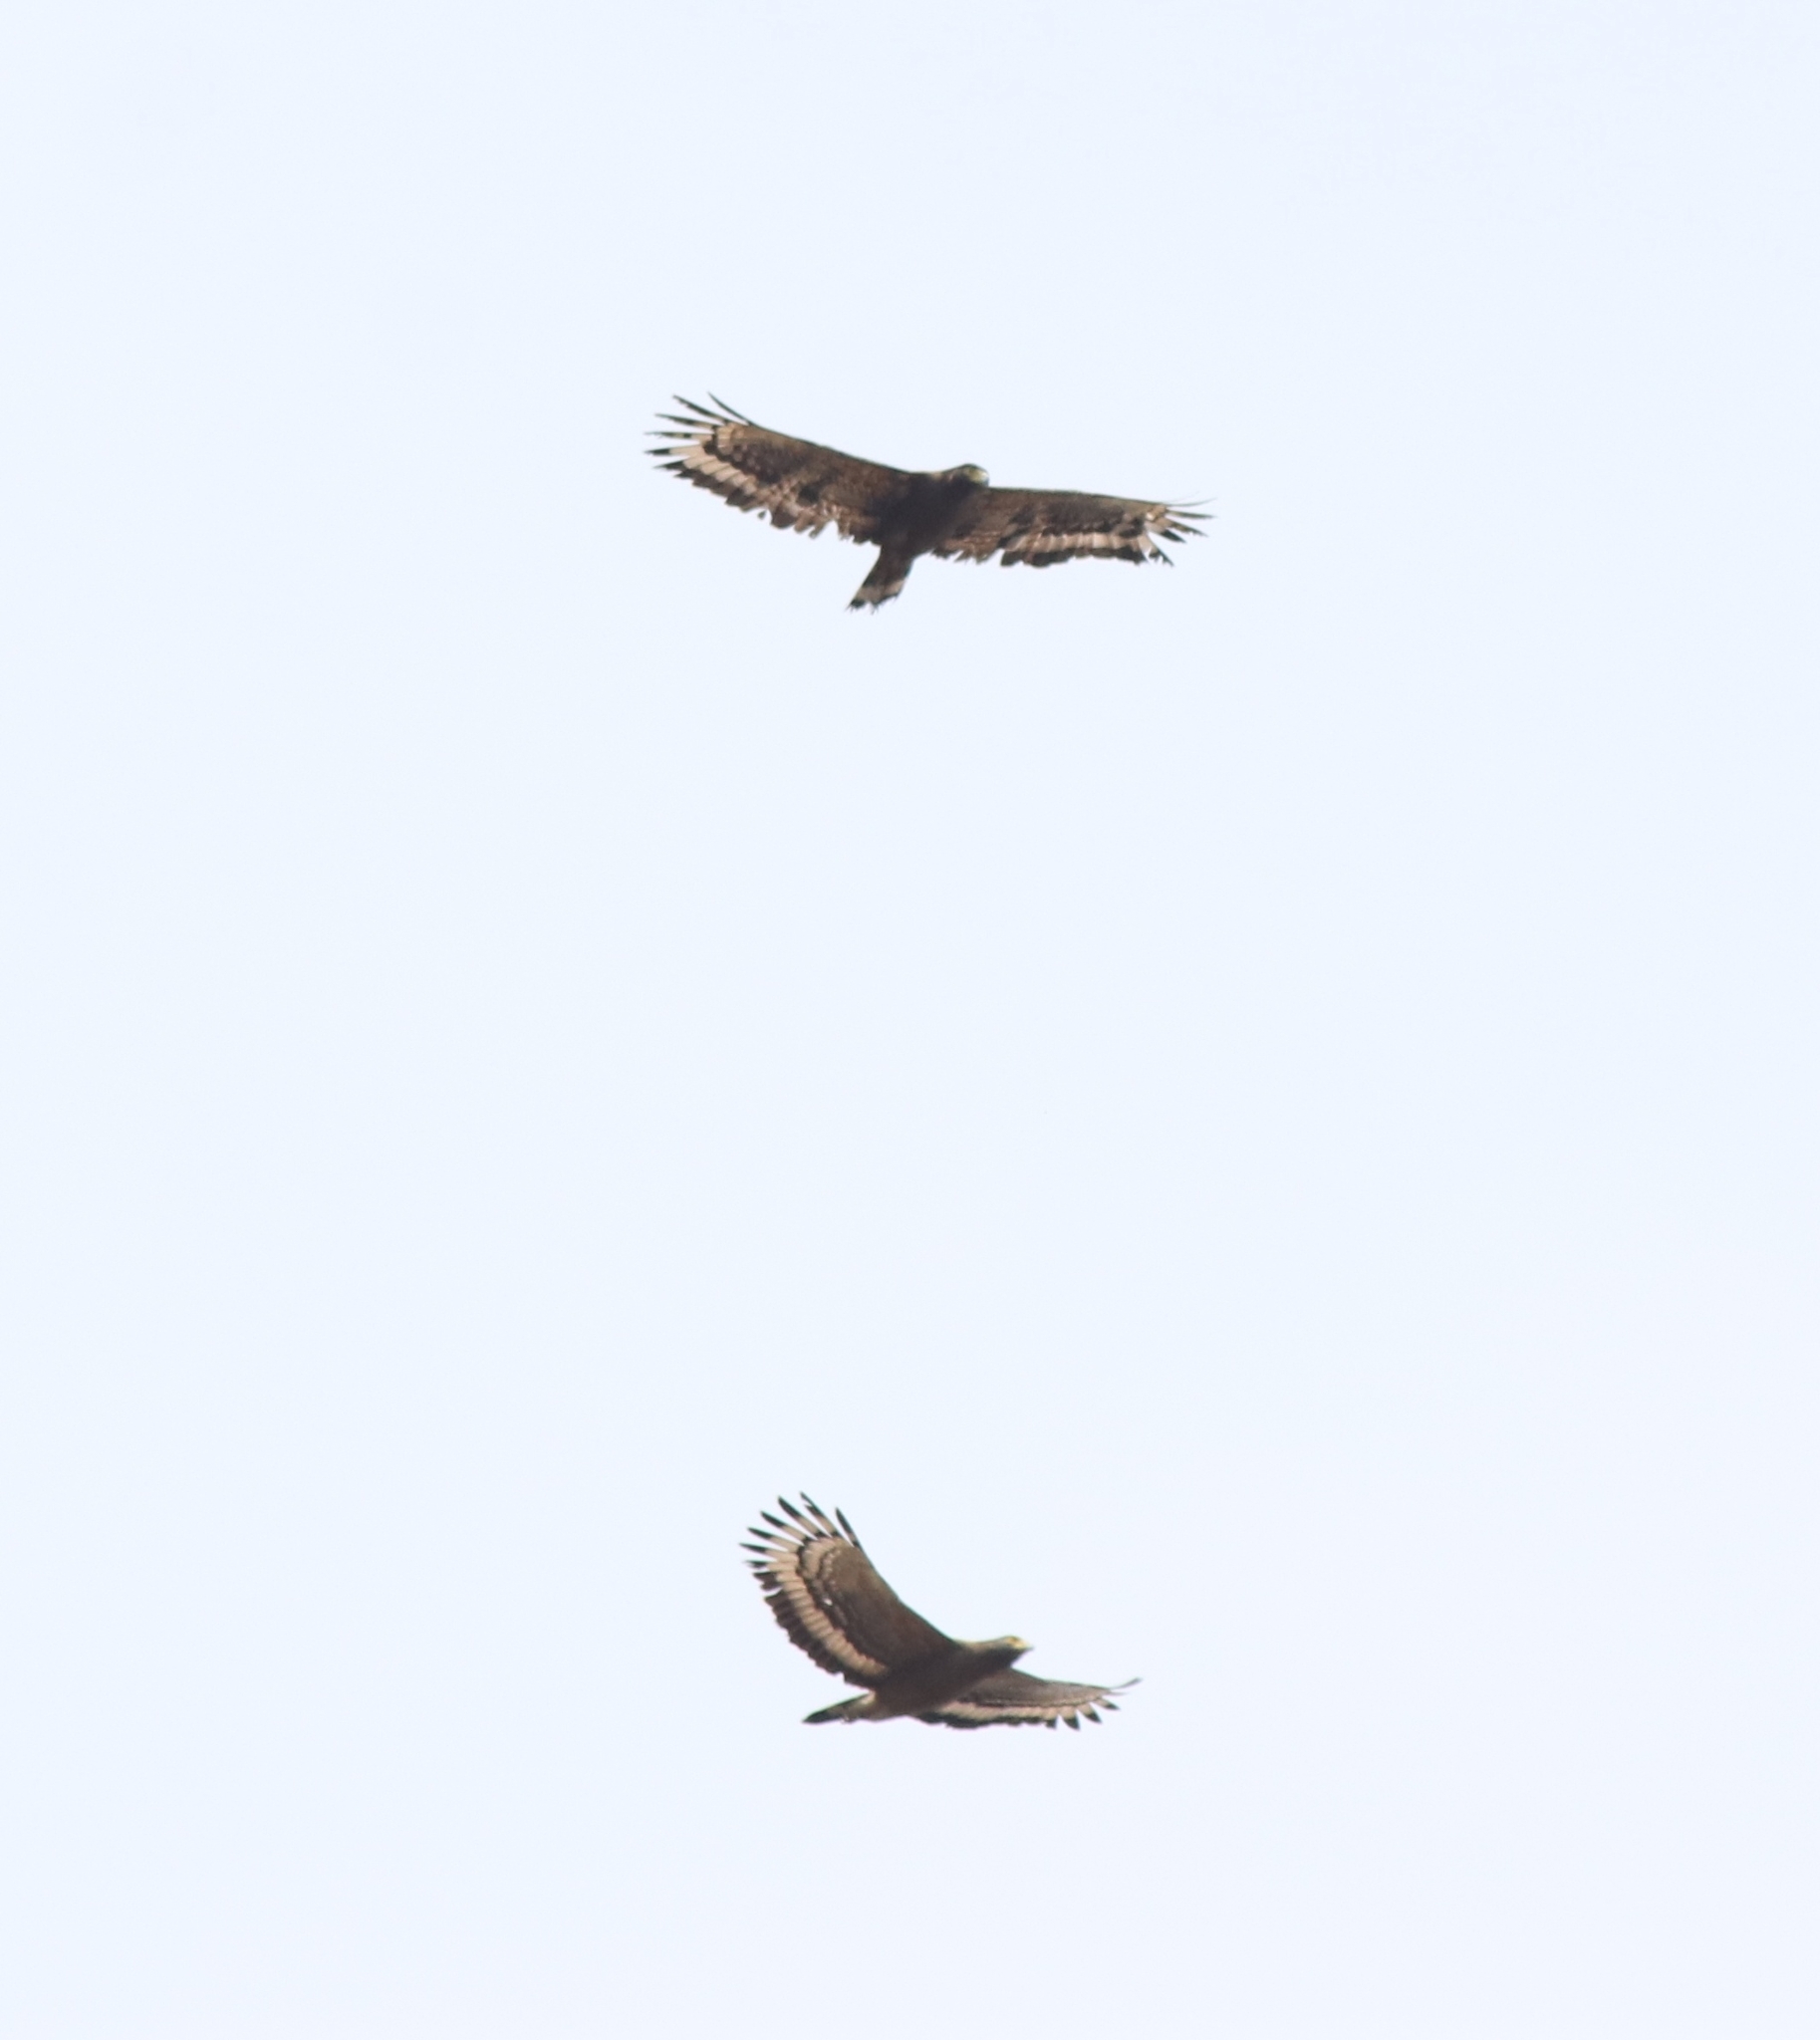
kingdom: Animalia
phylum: Chordata
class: Aves
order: Accipitriformes
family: Accipitridae
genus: Spilornis
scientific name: Spilornis cheela
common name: Crested serpent eagle
